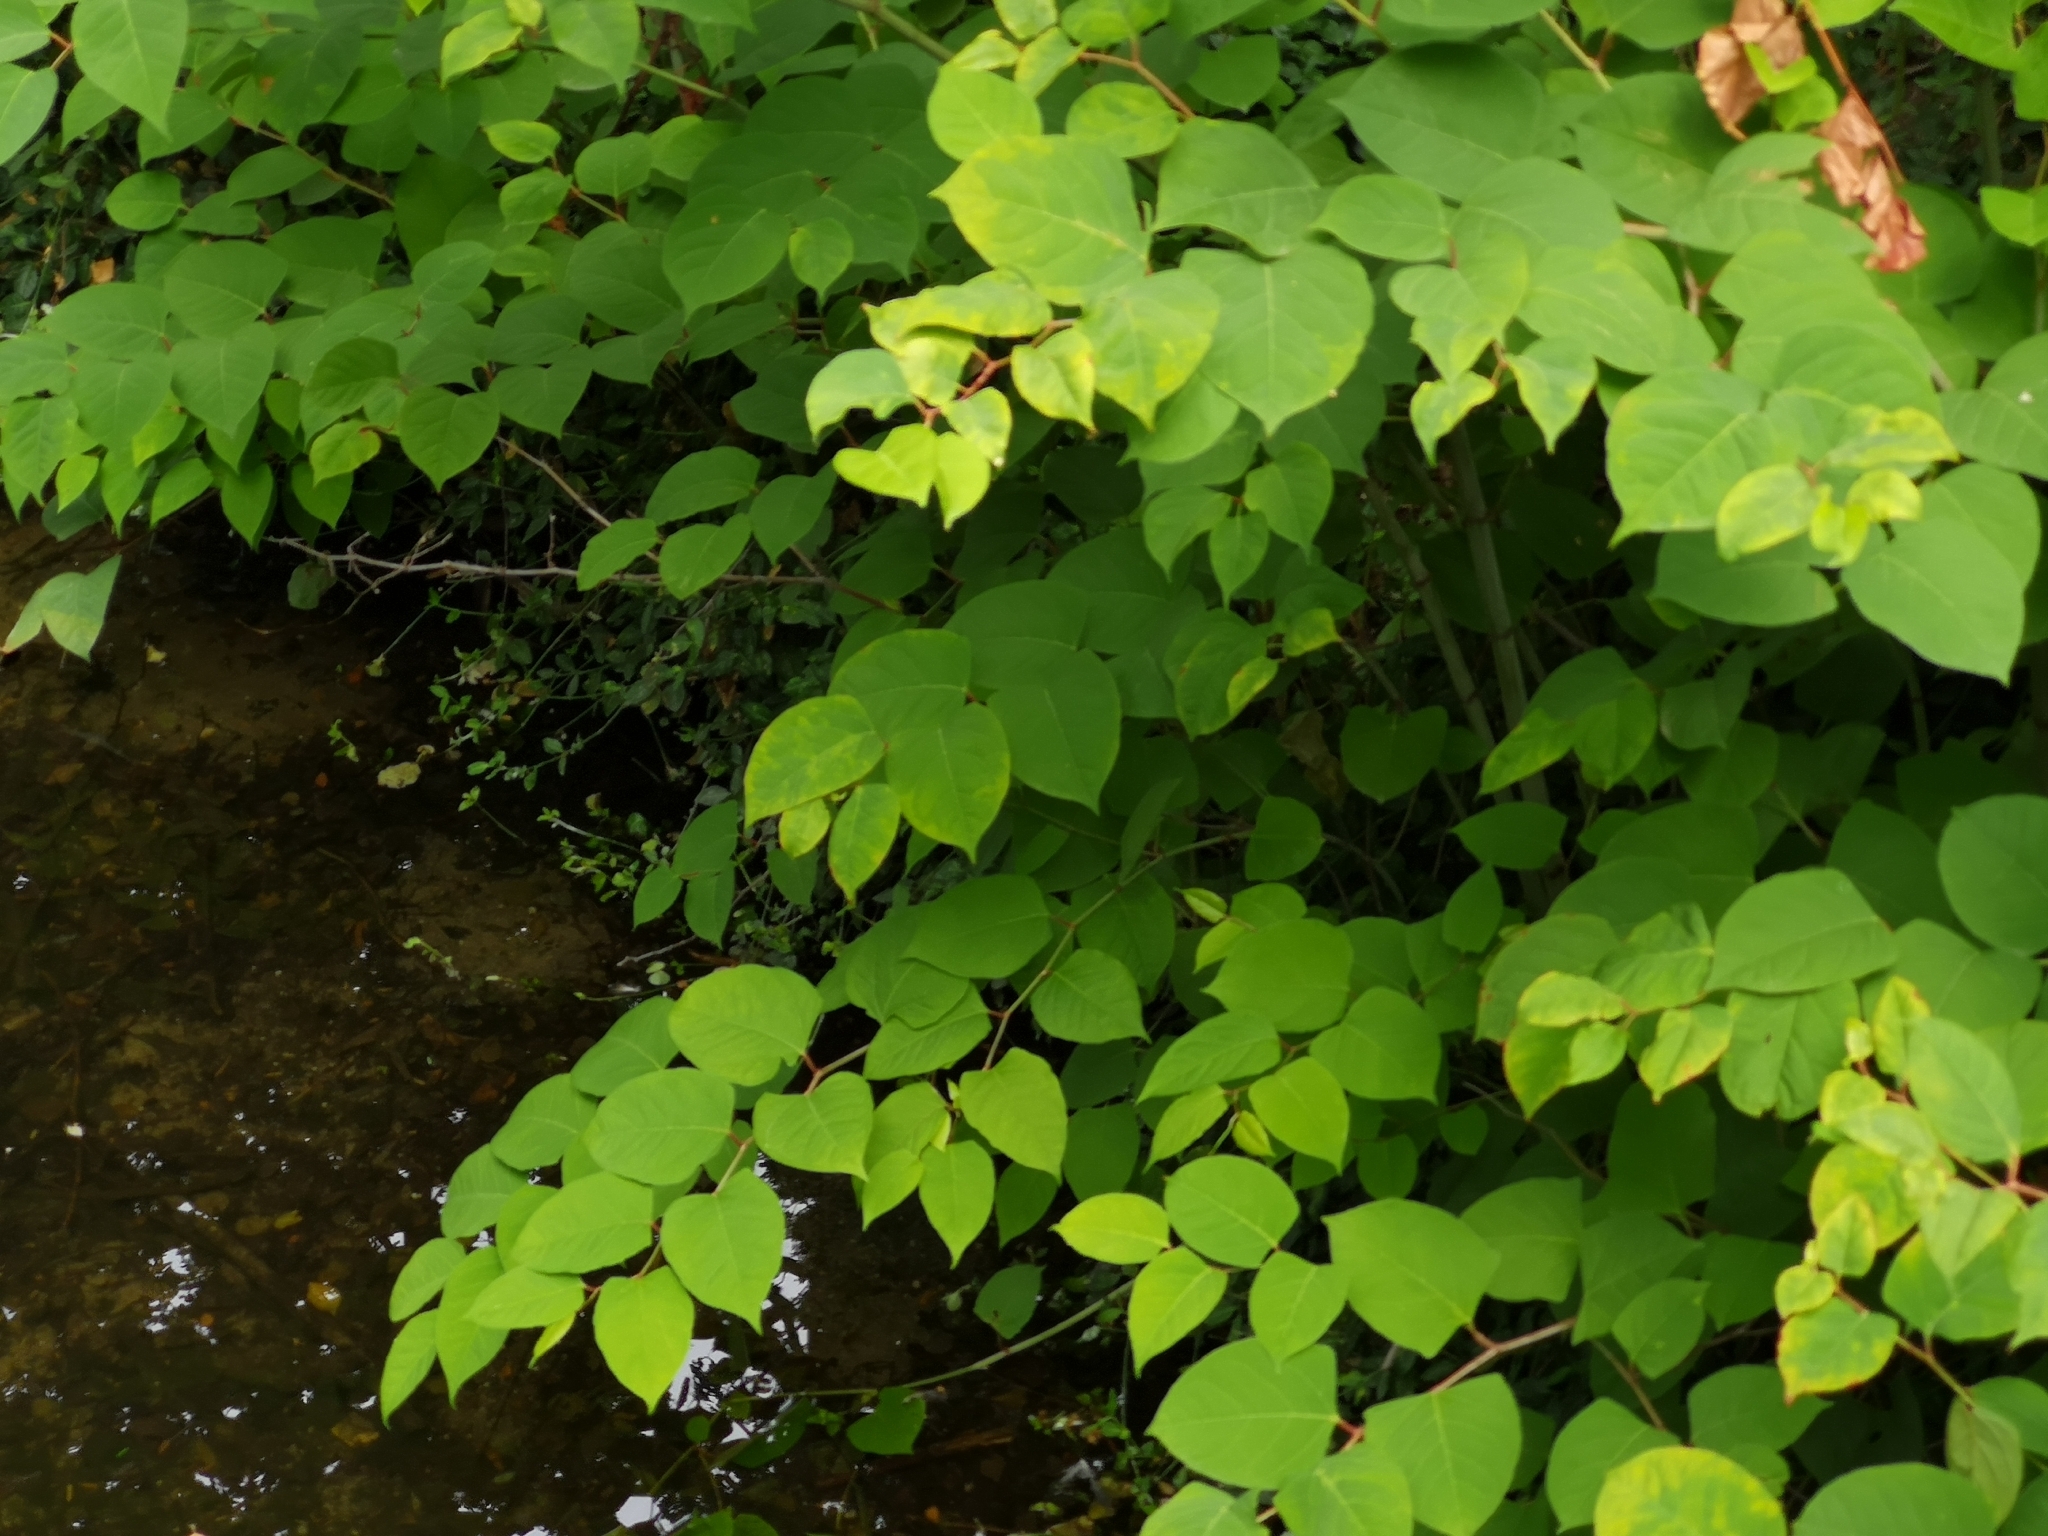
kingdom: Plantae
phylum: Tracheophyta
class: Magnoliopsida
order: Caryophyllales
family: Polygonaceae
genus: Reynoutria
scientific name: Reynoutria japonica
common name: Japanese knotweed
